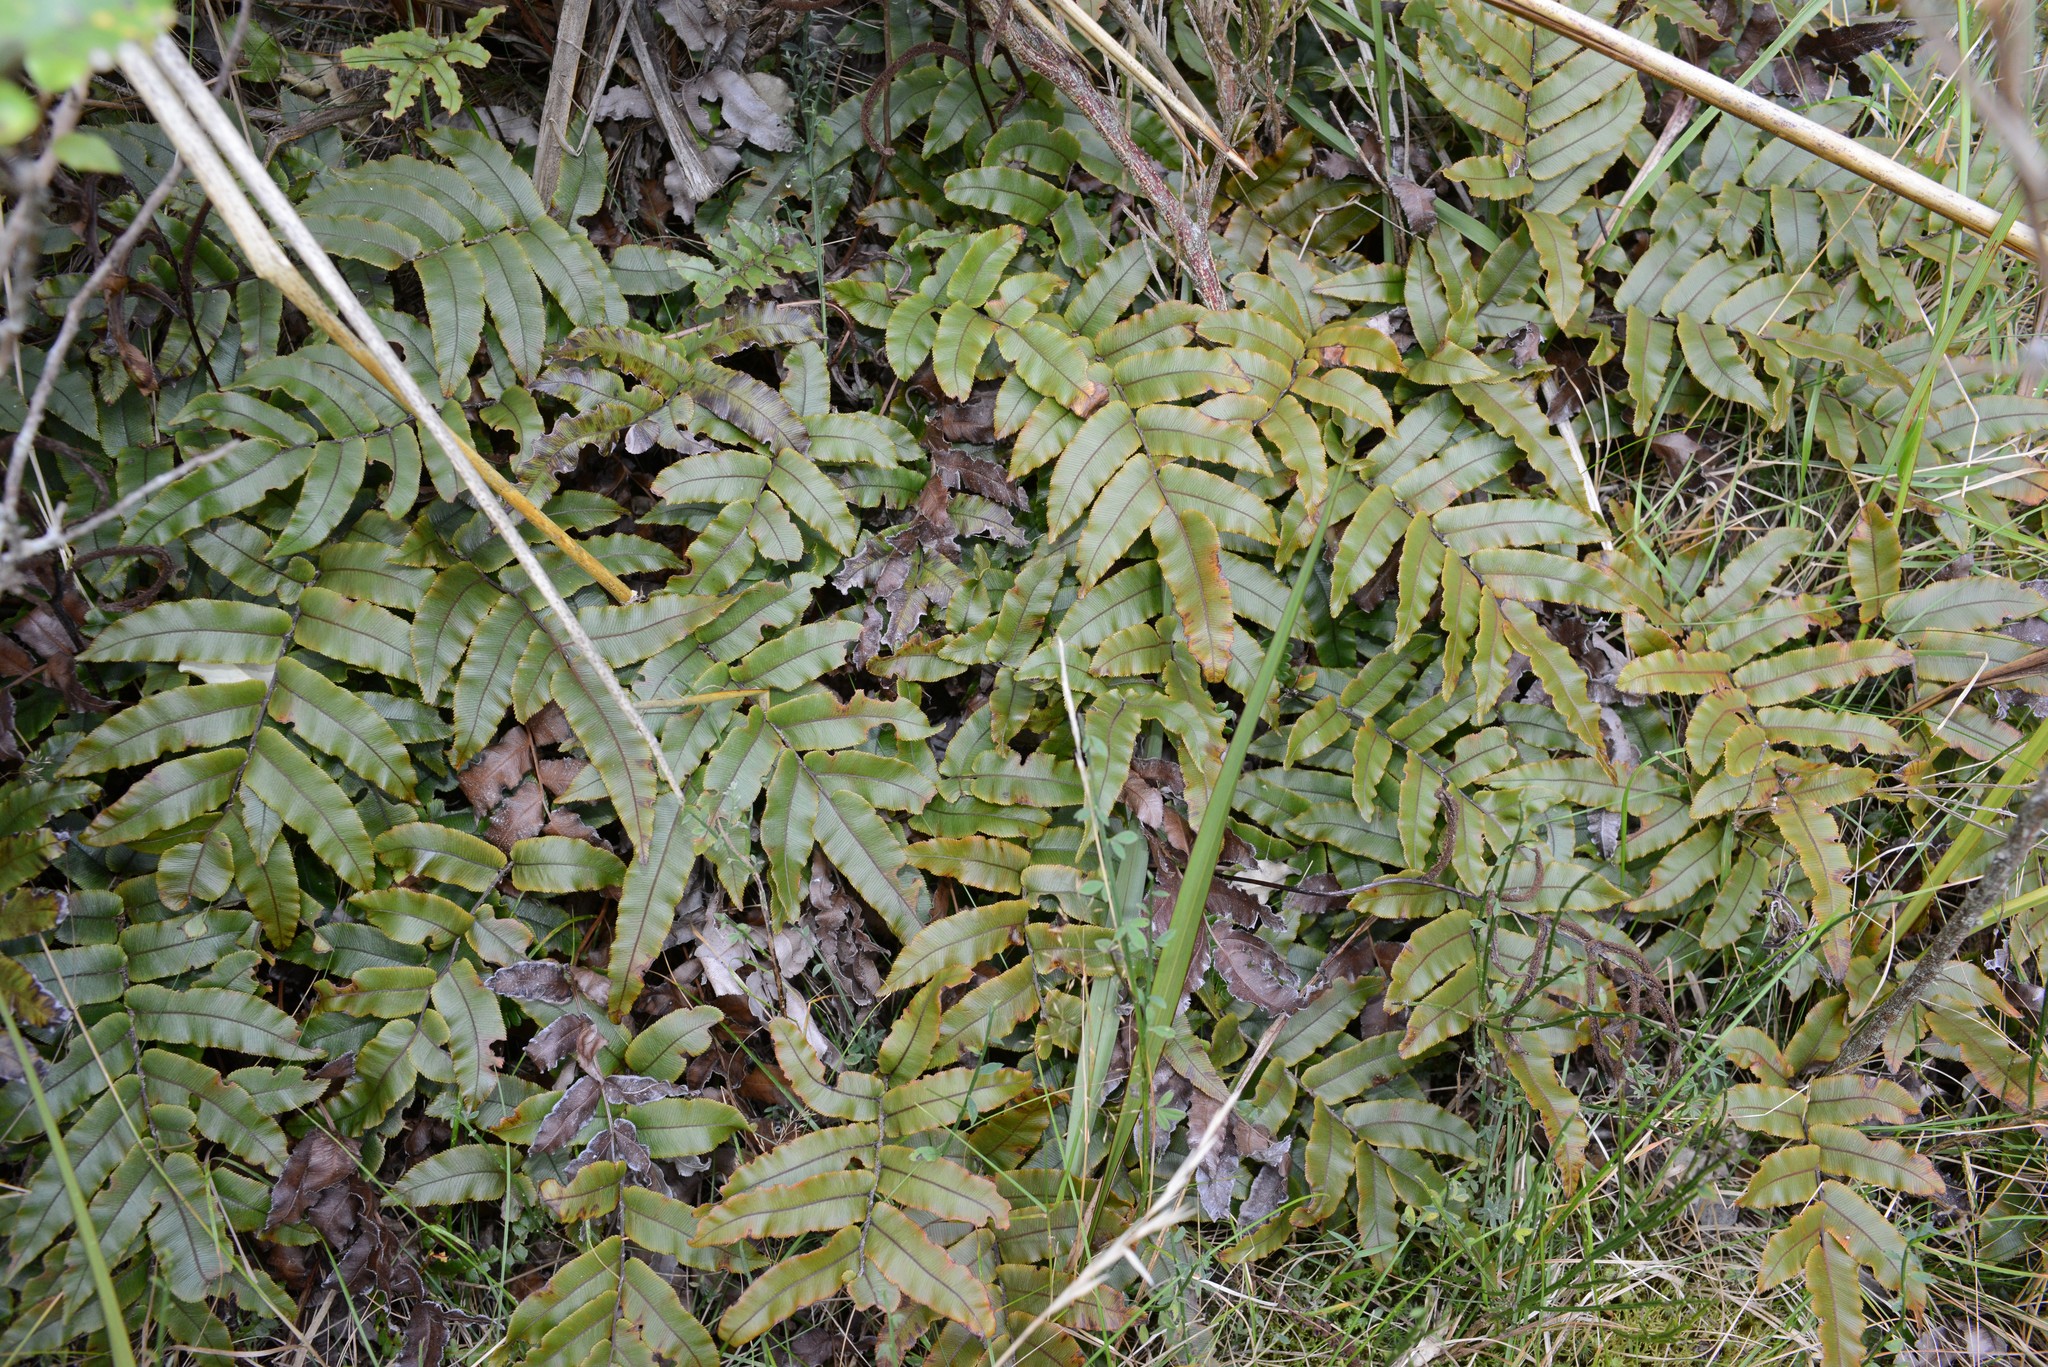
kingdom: Plantae
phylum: Tracheophyta
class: Polypodiopsida
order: Polypodiales
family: Blechnaceae
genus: Parablechnum
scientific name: Parablechnum procerum
